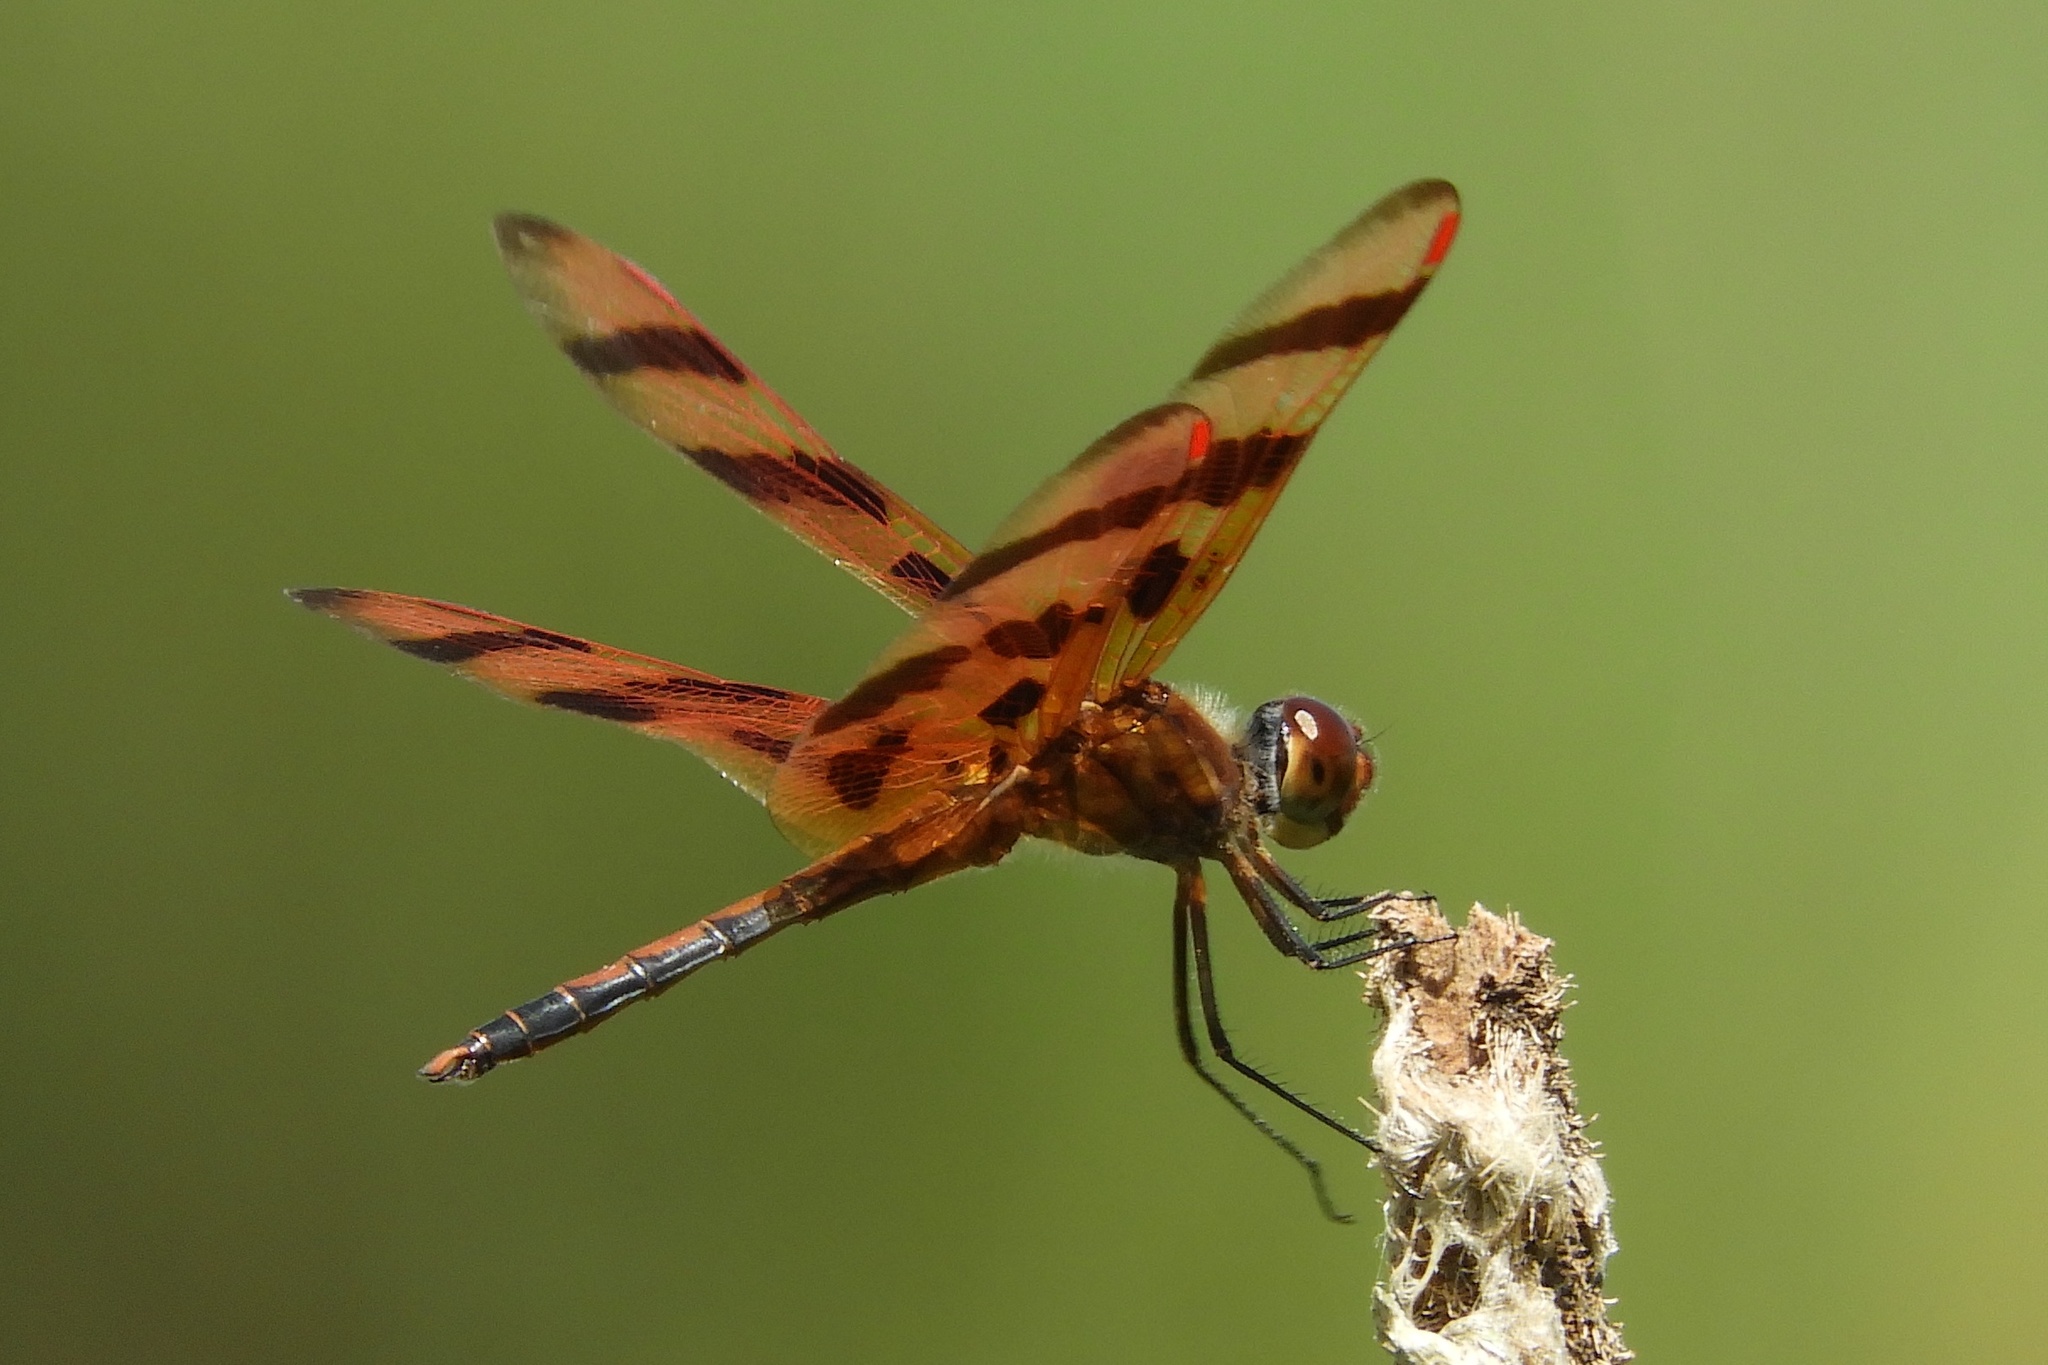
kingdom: Animalia
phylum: Arthropoda
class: Insecta
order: Odonata
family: Libellulidae
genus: Celithemis
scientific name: Celithemis eponina
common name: Halloween pennant
